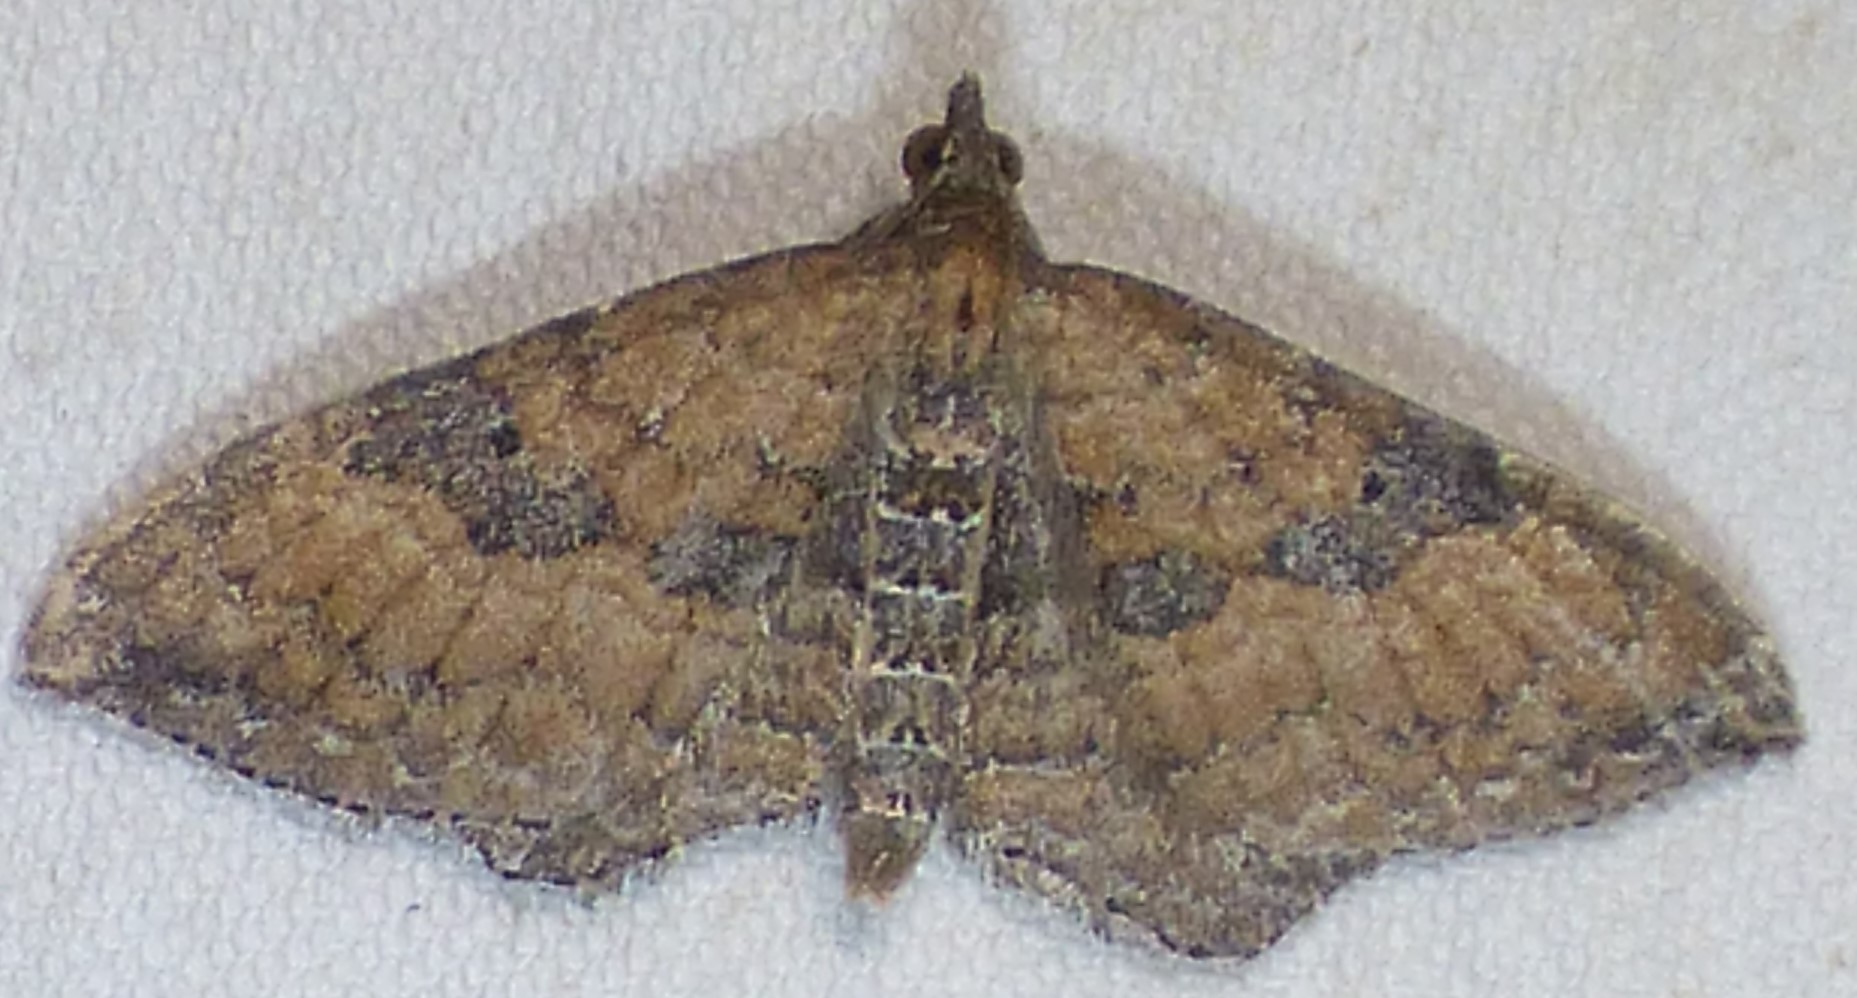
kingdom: Animalia
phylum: Arthropoda
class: Insecta
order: Lepidoptera
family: Geometridae
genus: Orthonama
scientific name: Orthonama obstipata
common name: The gem
